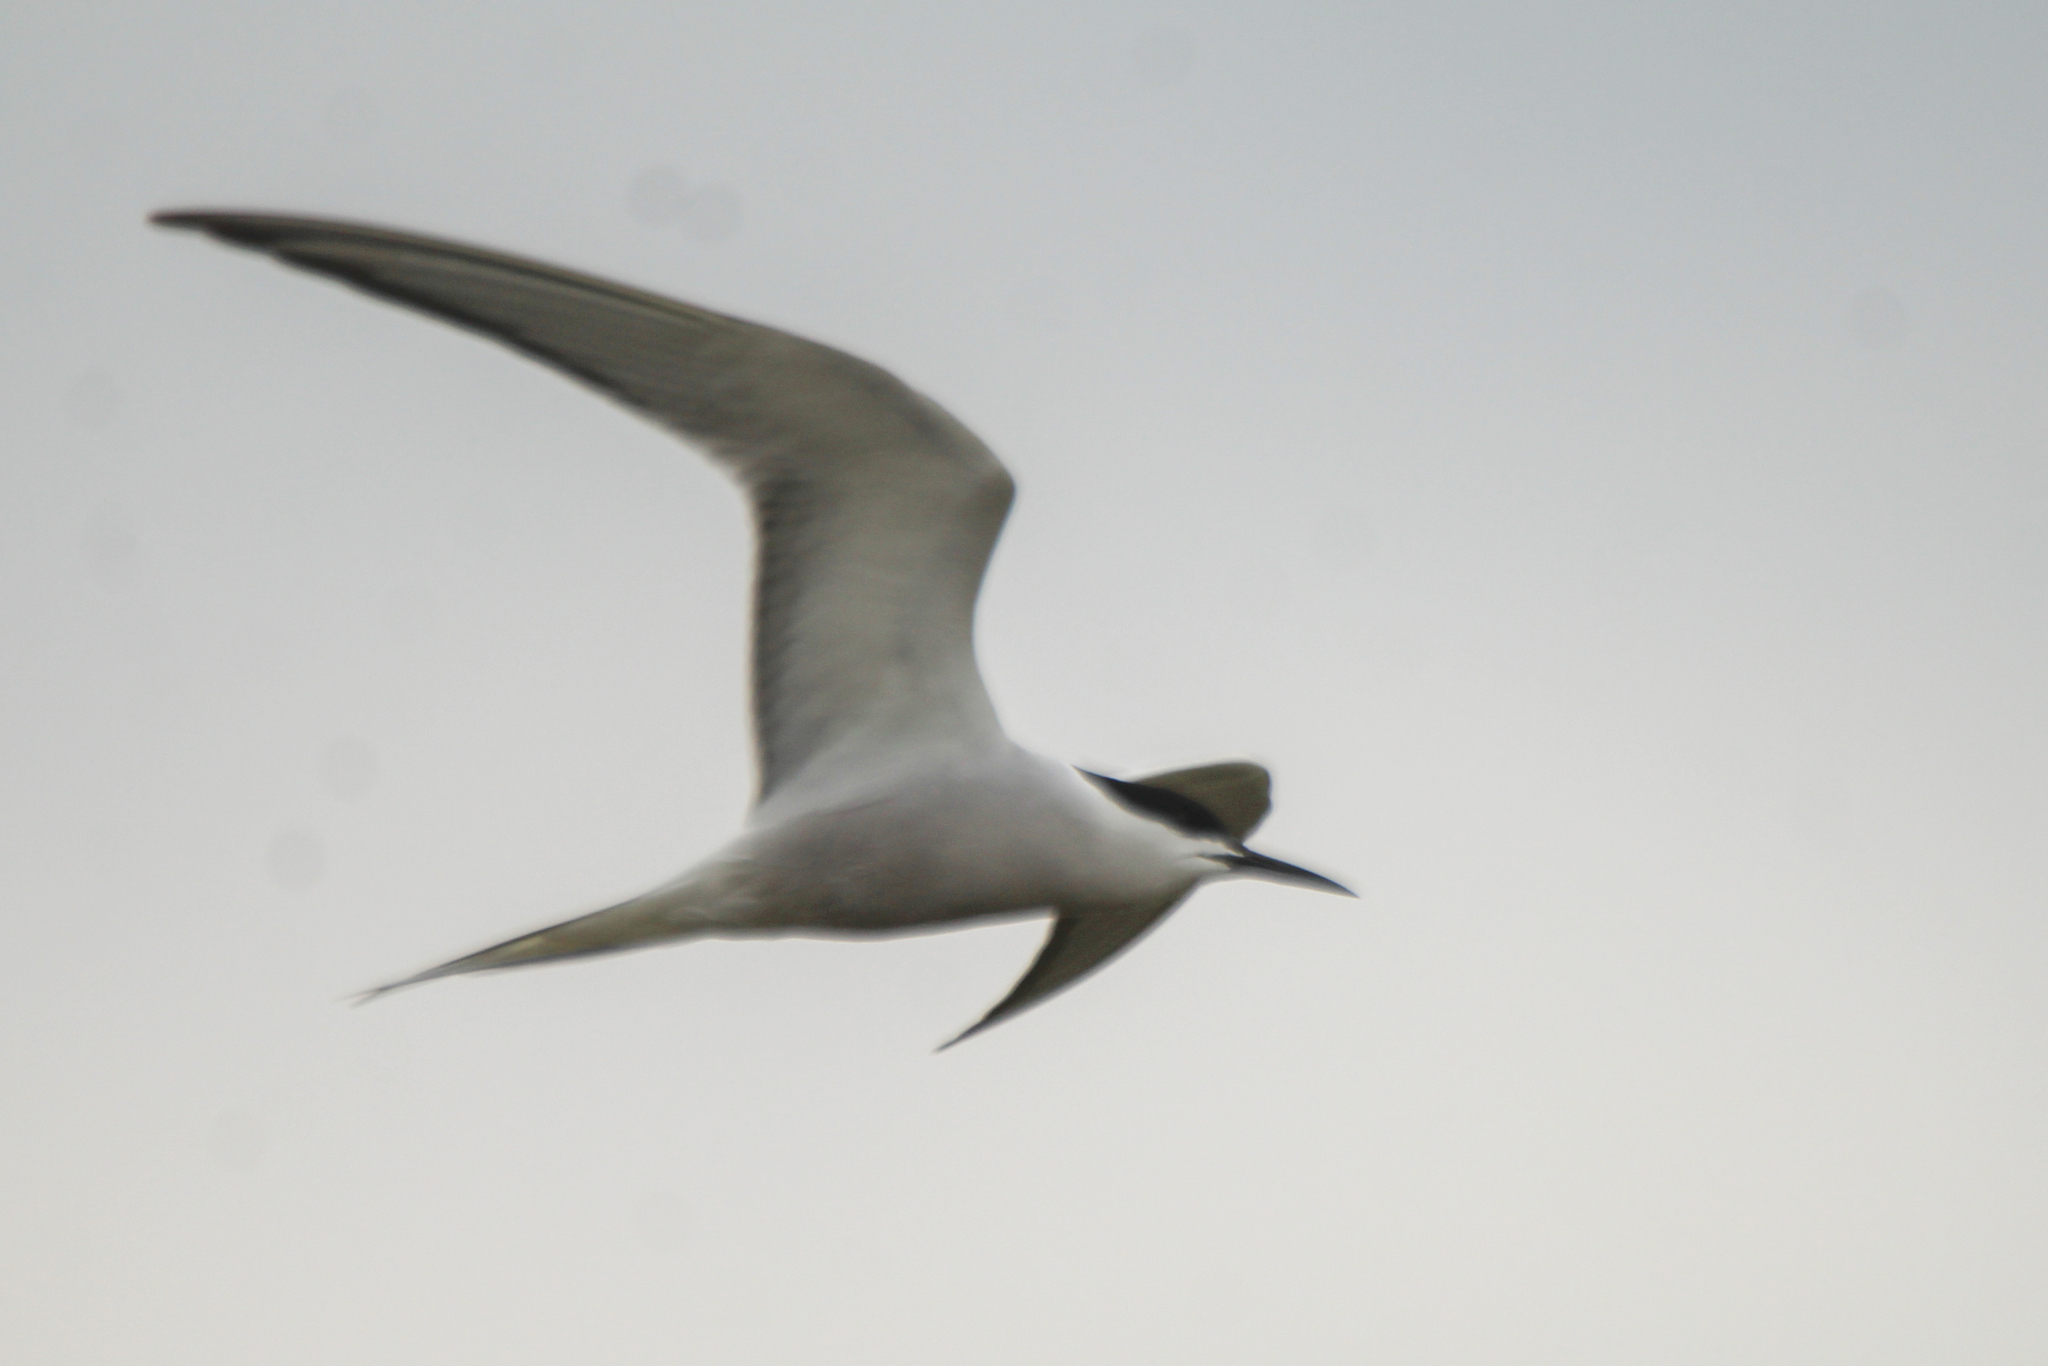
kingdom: Animalia
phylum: Chordata
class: Aves
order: Charadriiformes
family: Laridae
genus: Sterna
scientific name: Sterna hirundo
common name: Common tern
